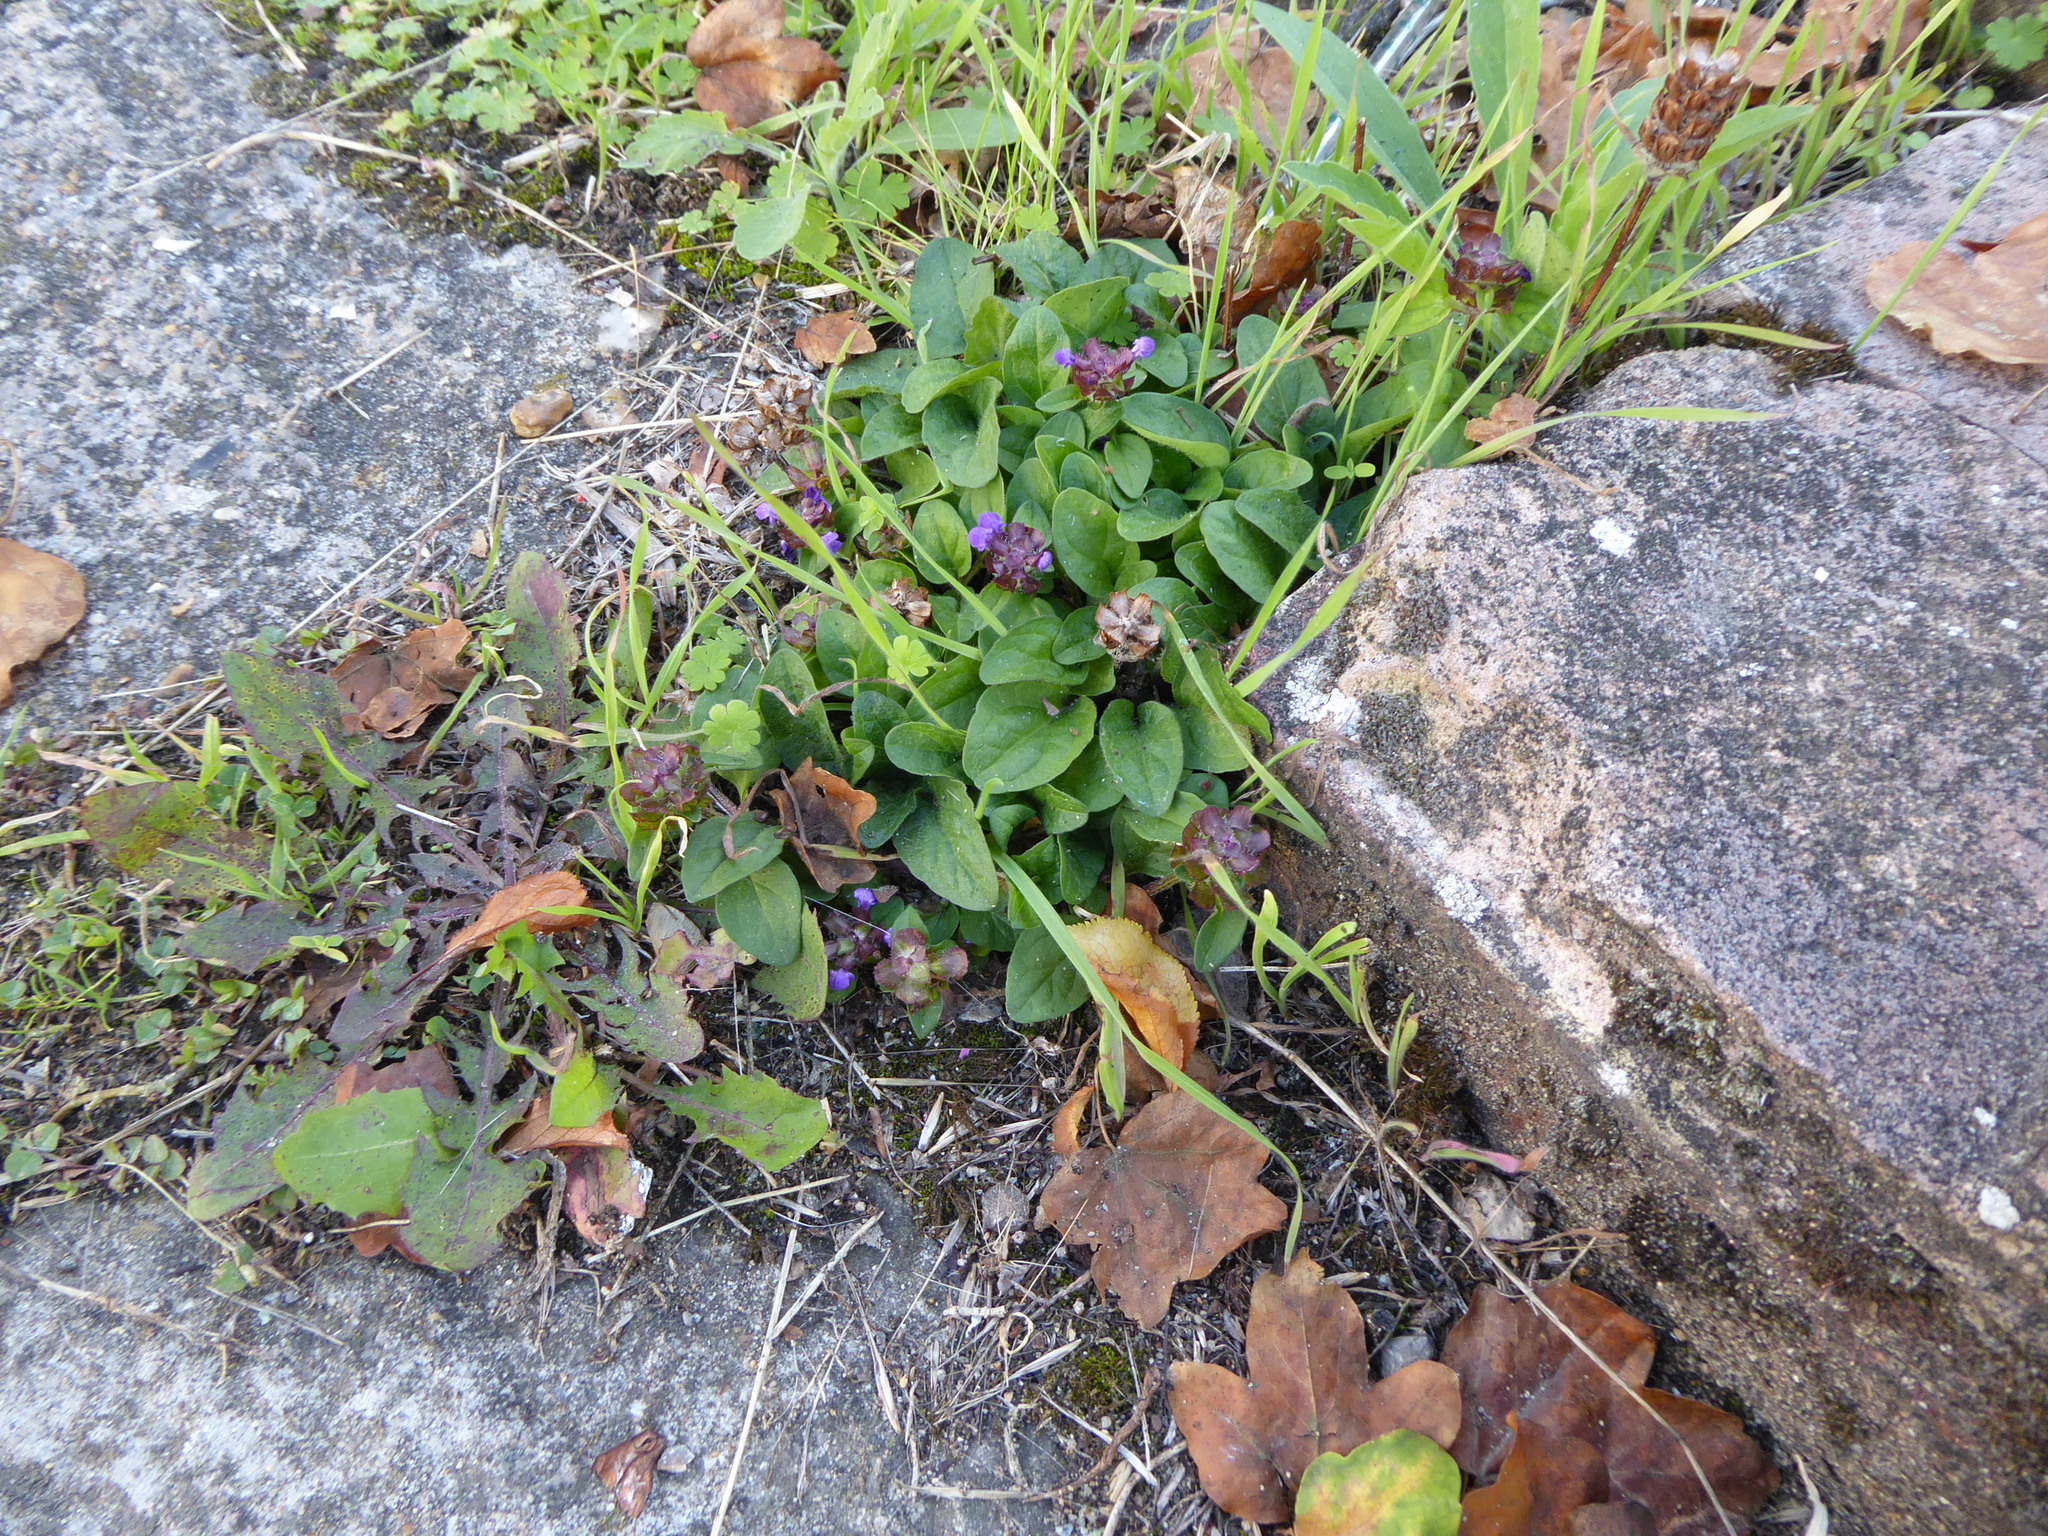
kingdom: Plantae
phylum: Tracheophyta
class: Magnoliopsida
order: Lamiales
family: Lamiaceae
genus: Prunella
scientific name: Prunella vulgaris
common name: Heal-all
